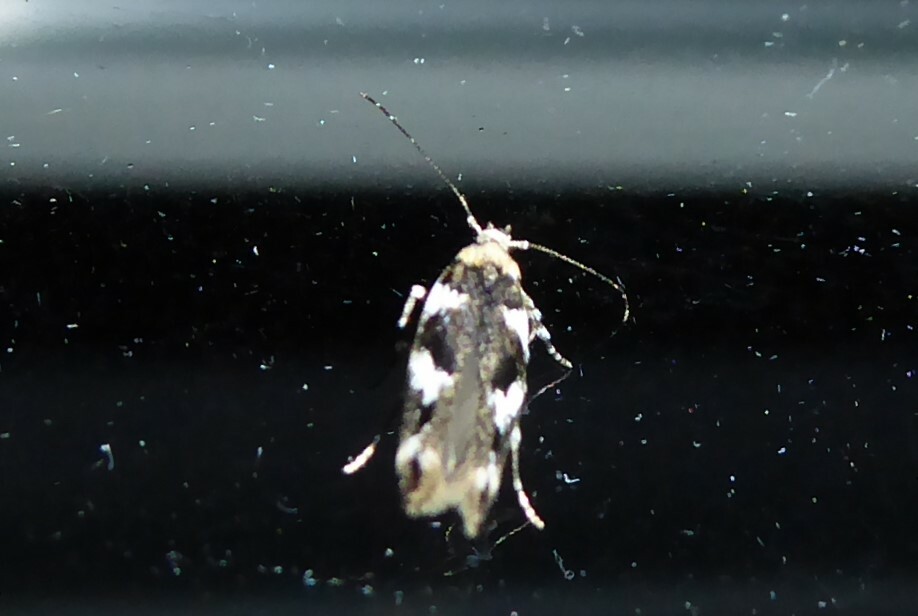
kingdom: Animalia
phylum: Arthropoda
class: Insecta
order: Lepidoptera
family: Cosmopterigidae
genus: Pyroderces
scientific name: Pyroderces deamatella
